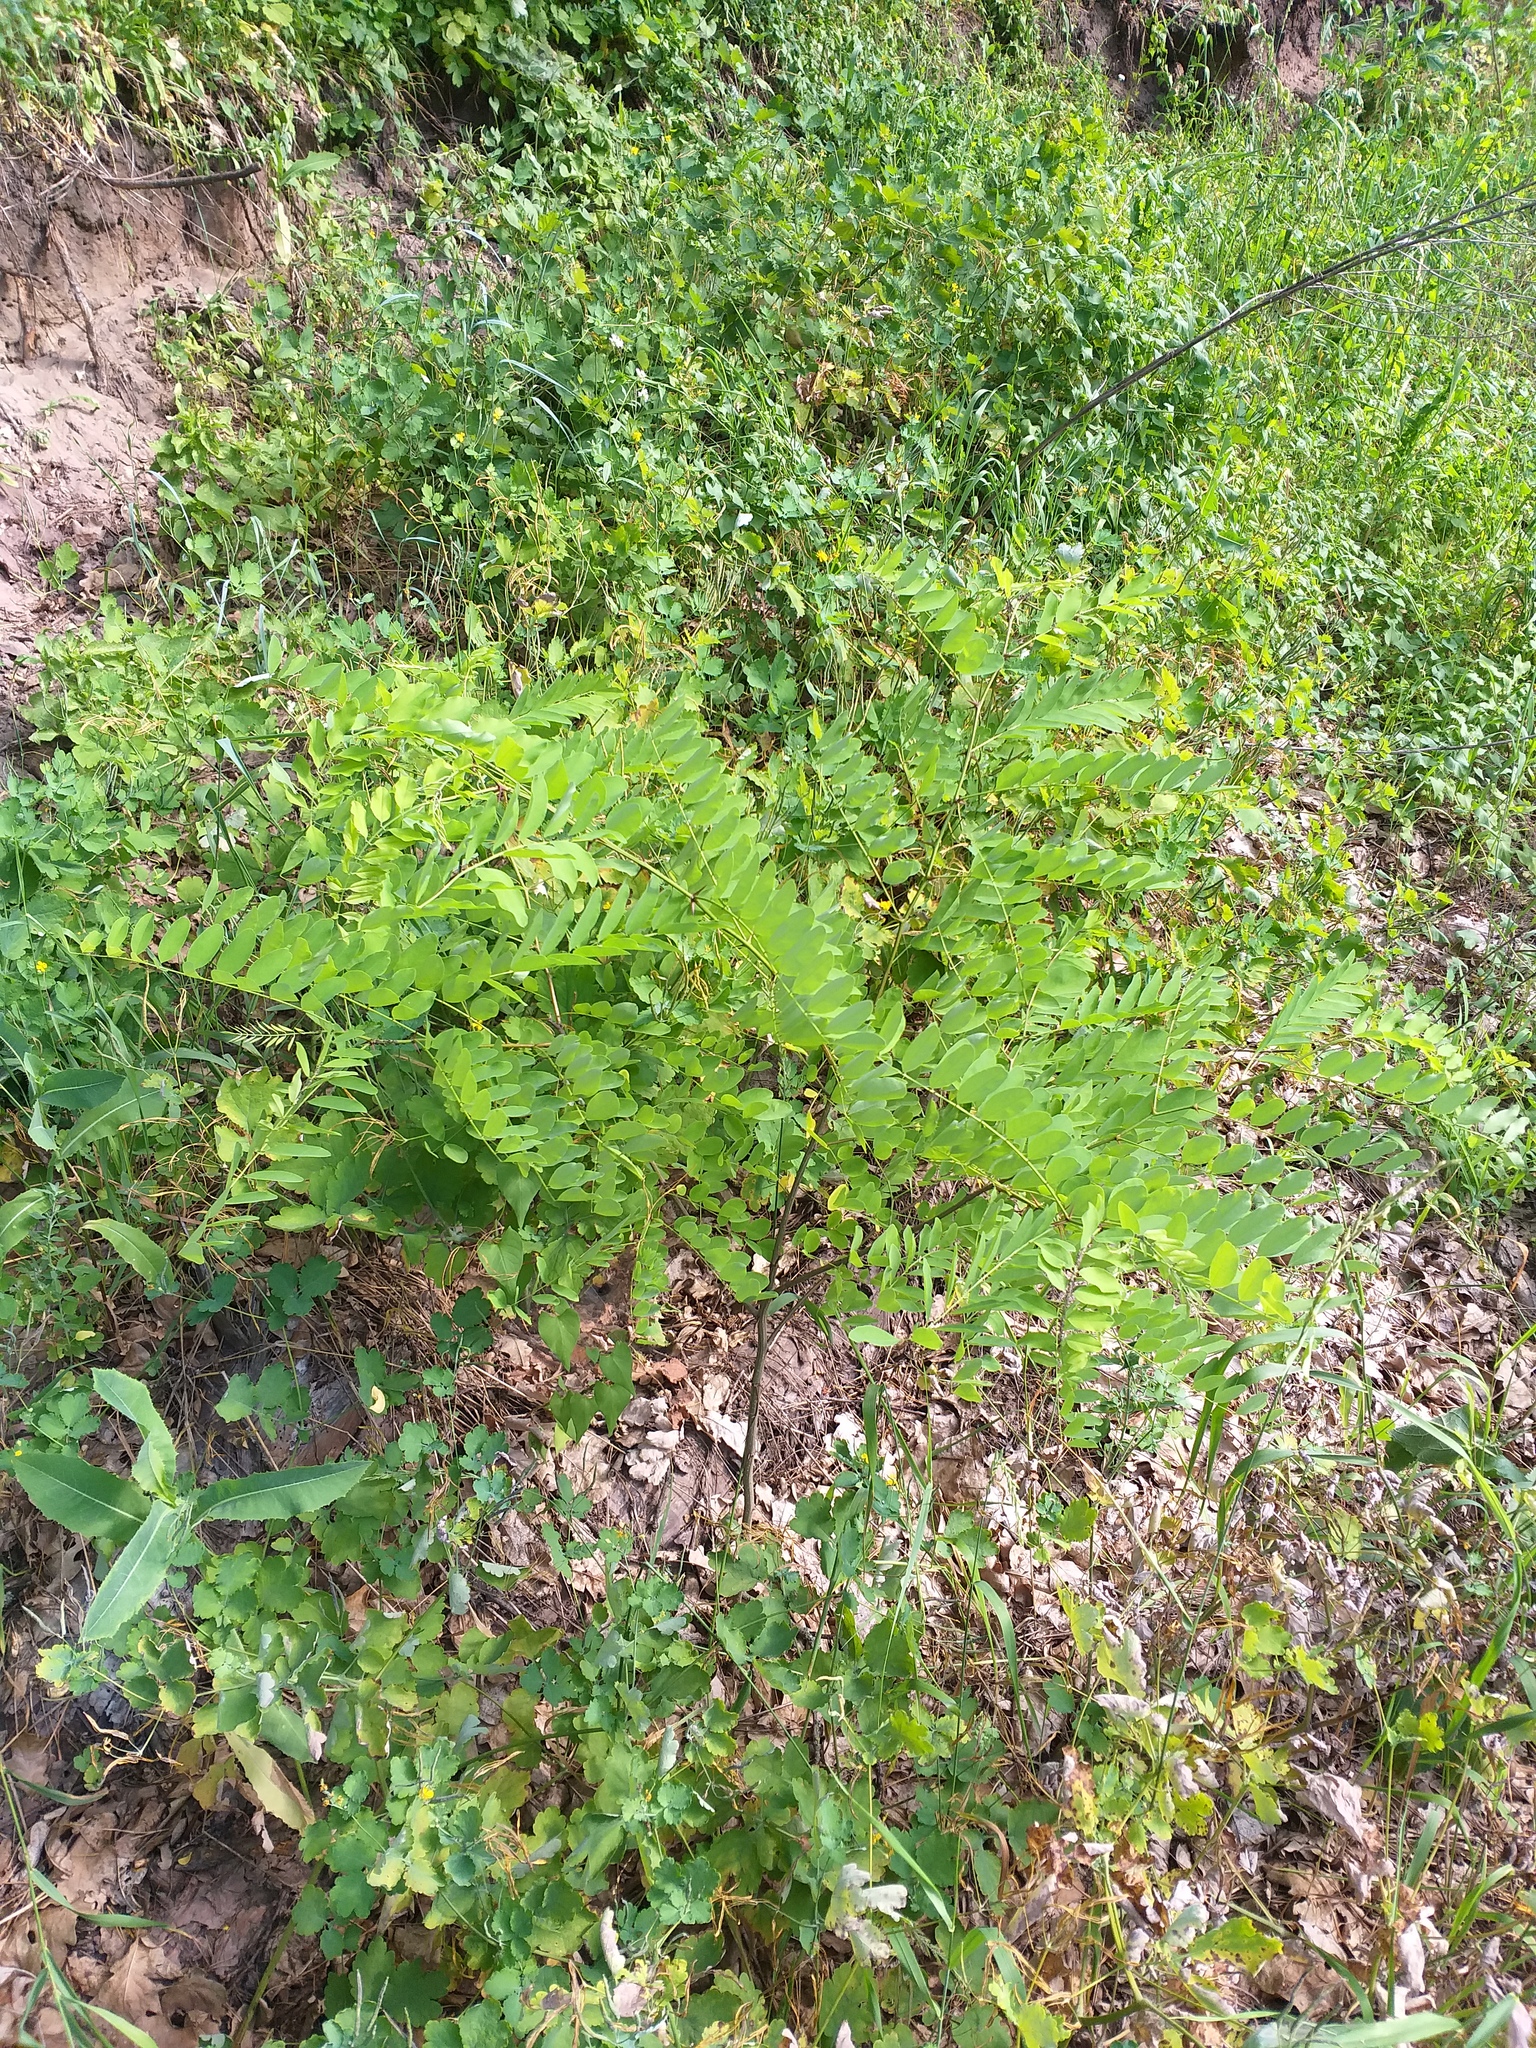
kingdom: Plantae
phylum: Tracheophyta
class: Magnoliopsida
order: Fabales
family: Fabaceae
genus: Robinia
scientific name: Robinia pseudoacacia
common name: Black locust
